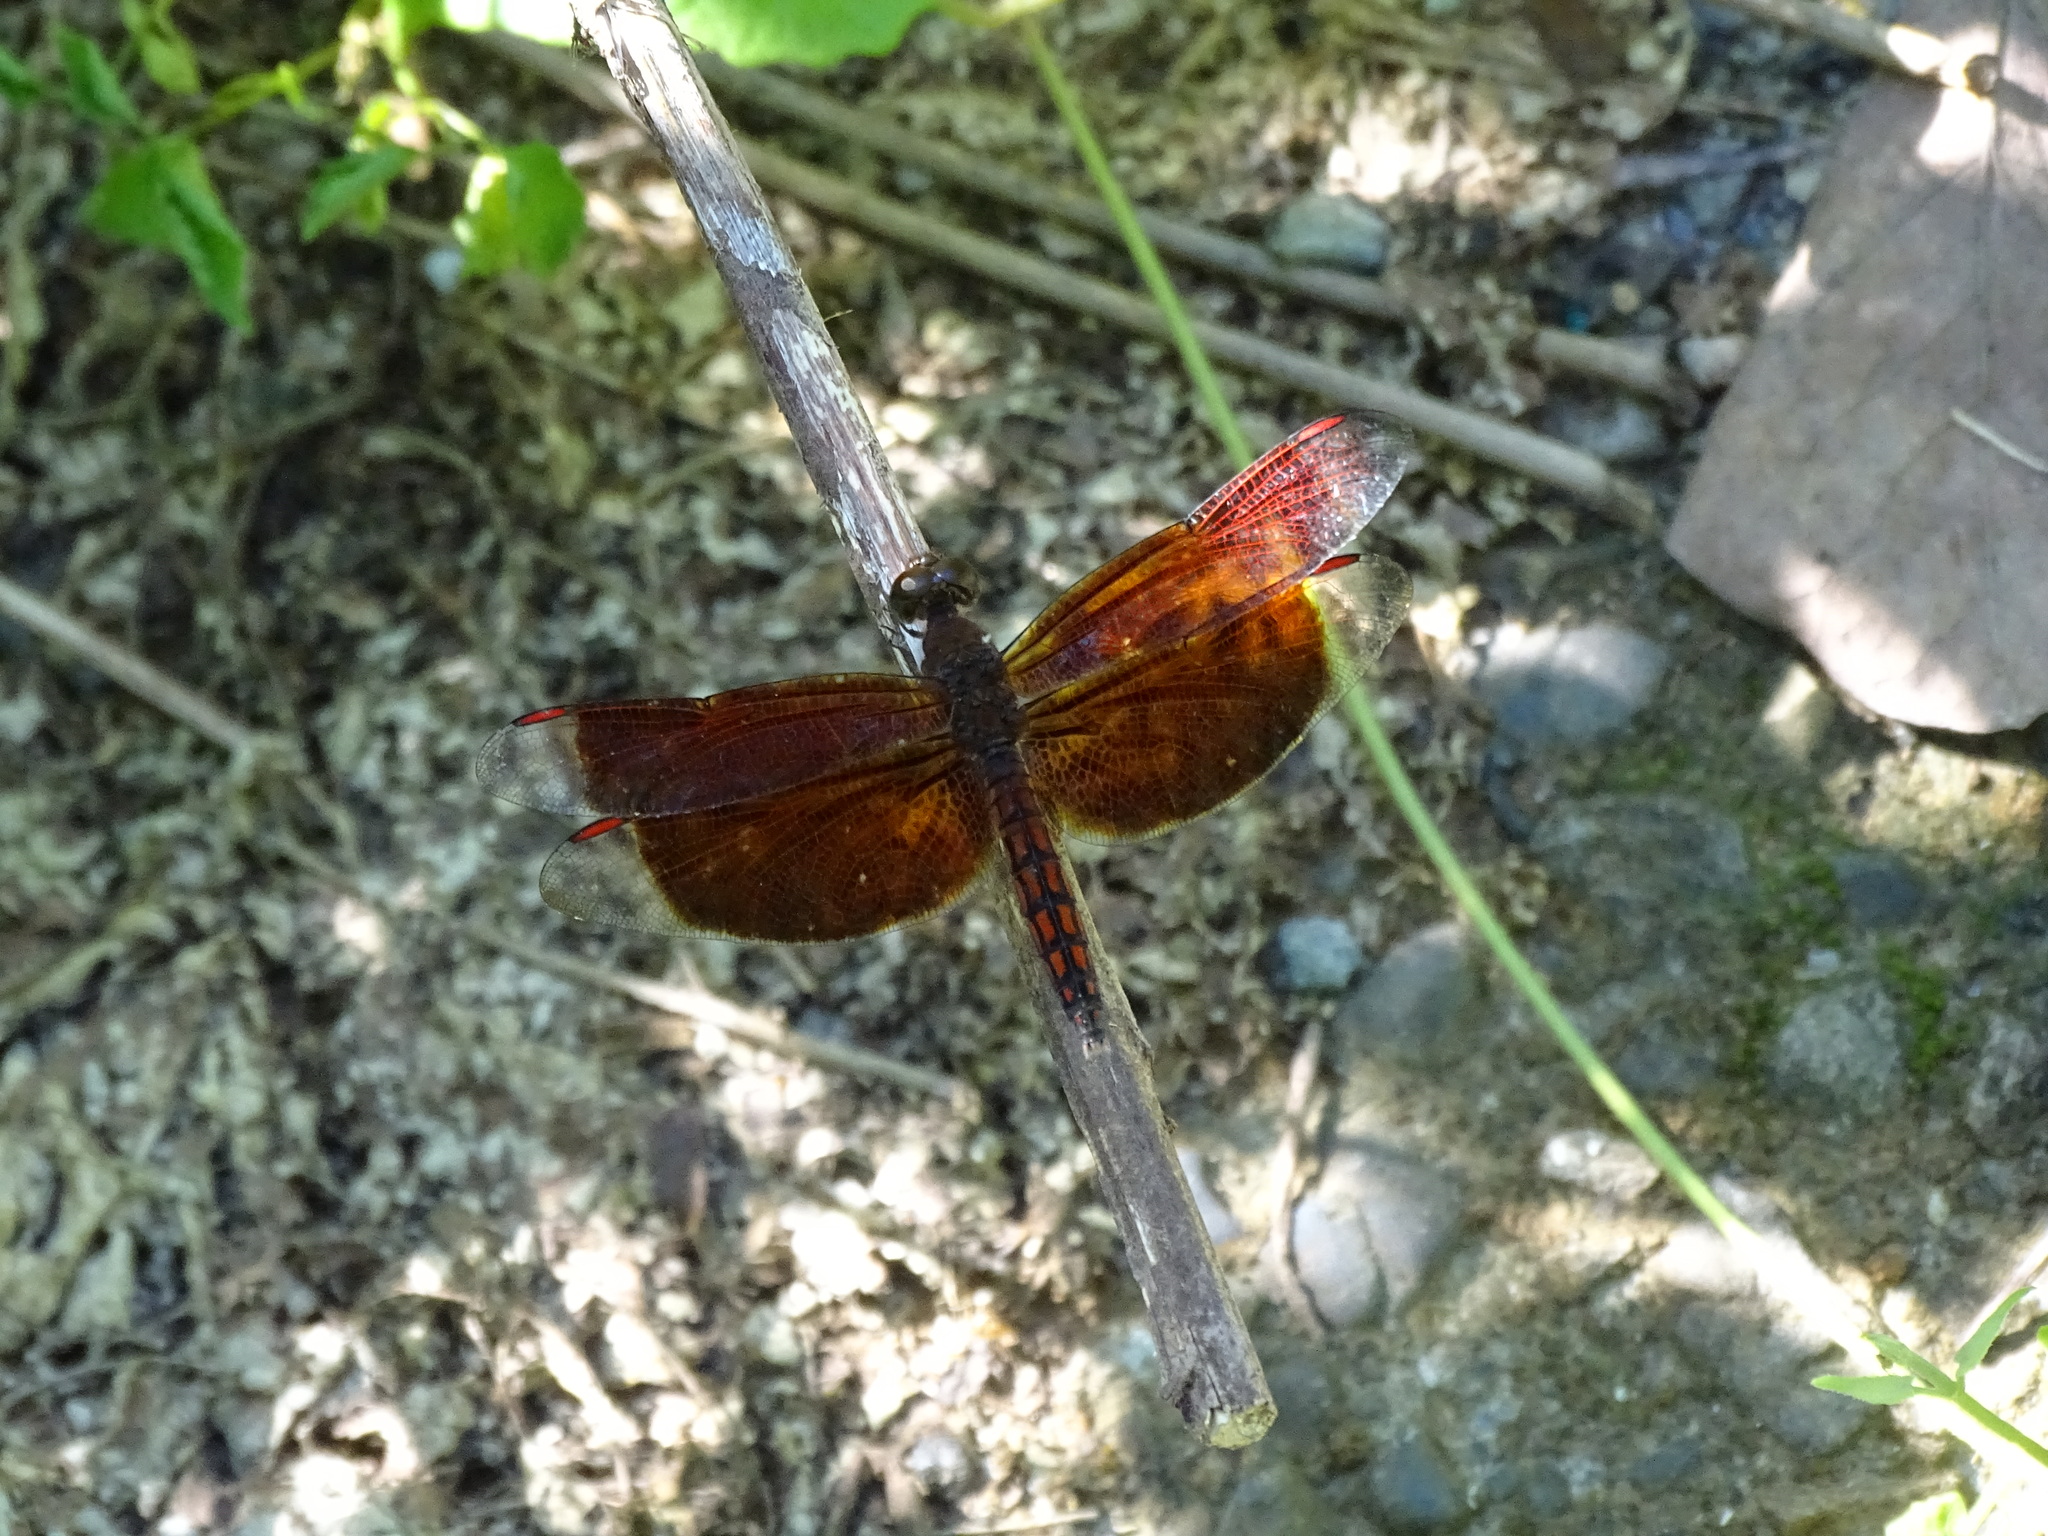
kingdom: Animalia
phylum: Arthropoda
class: Insecta
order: Odonata
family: Libellulidae
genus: Neurothemis
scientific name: Neurothemis taiwanensis
